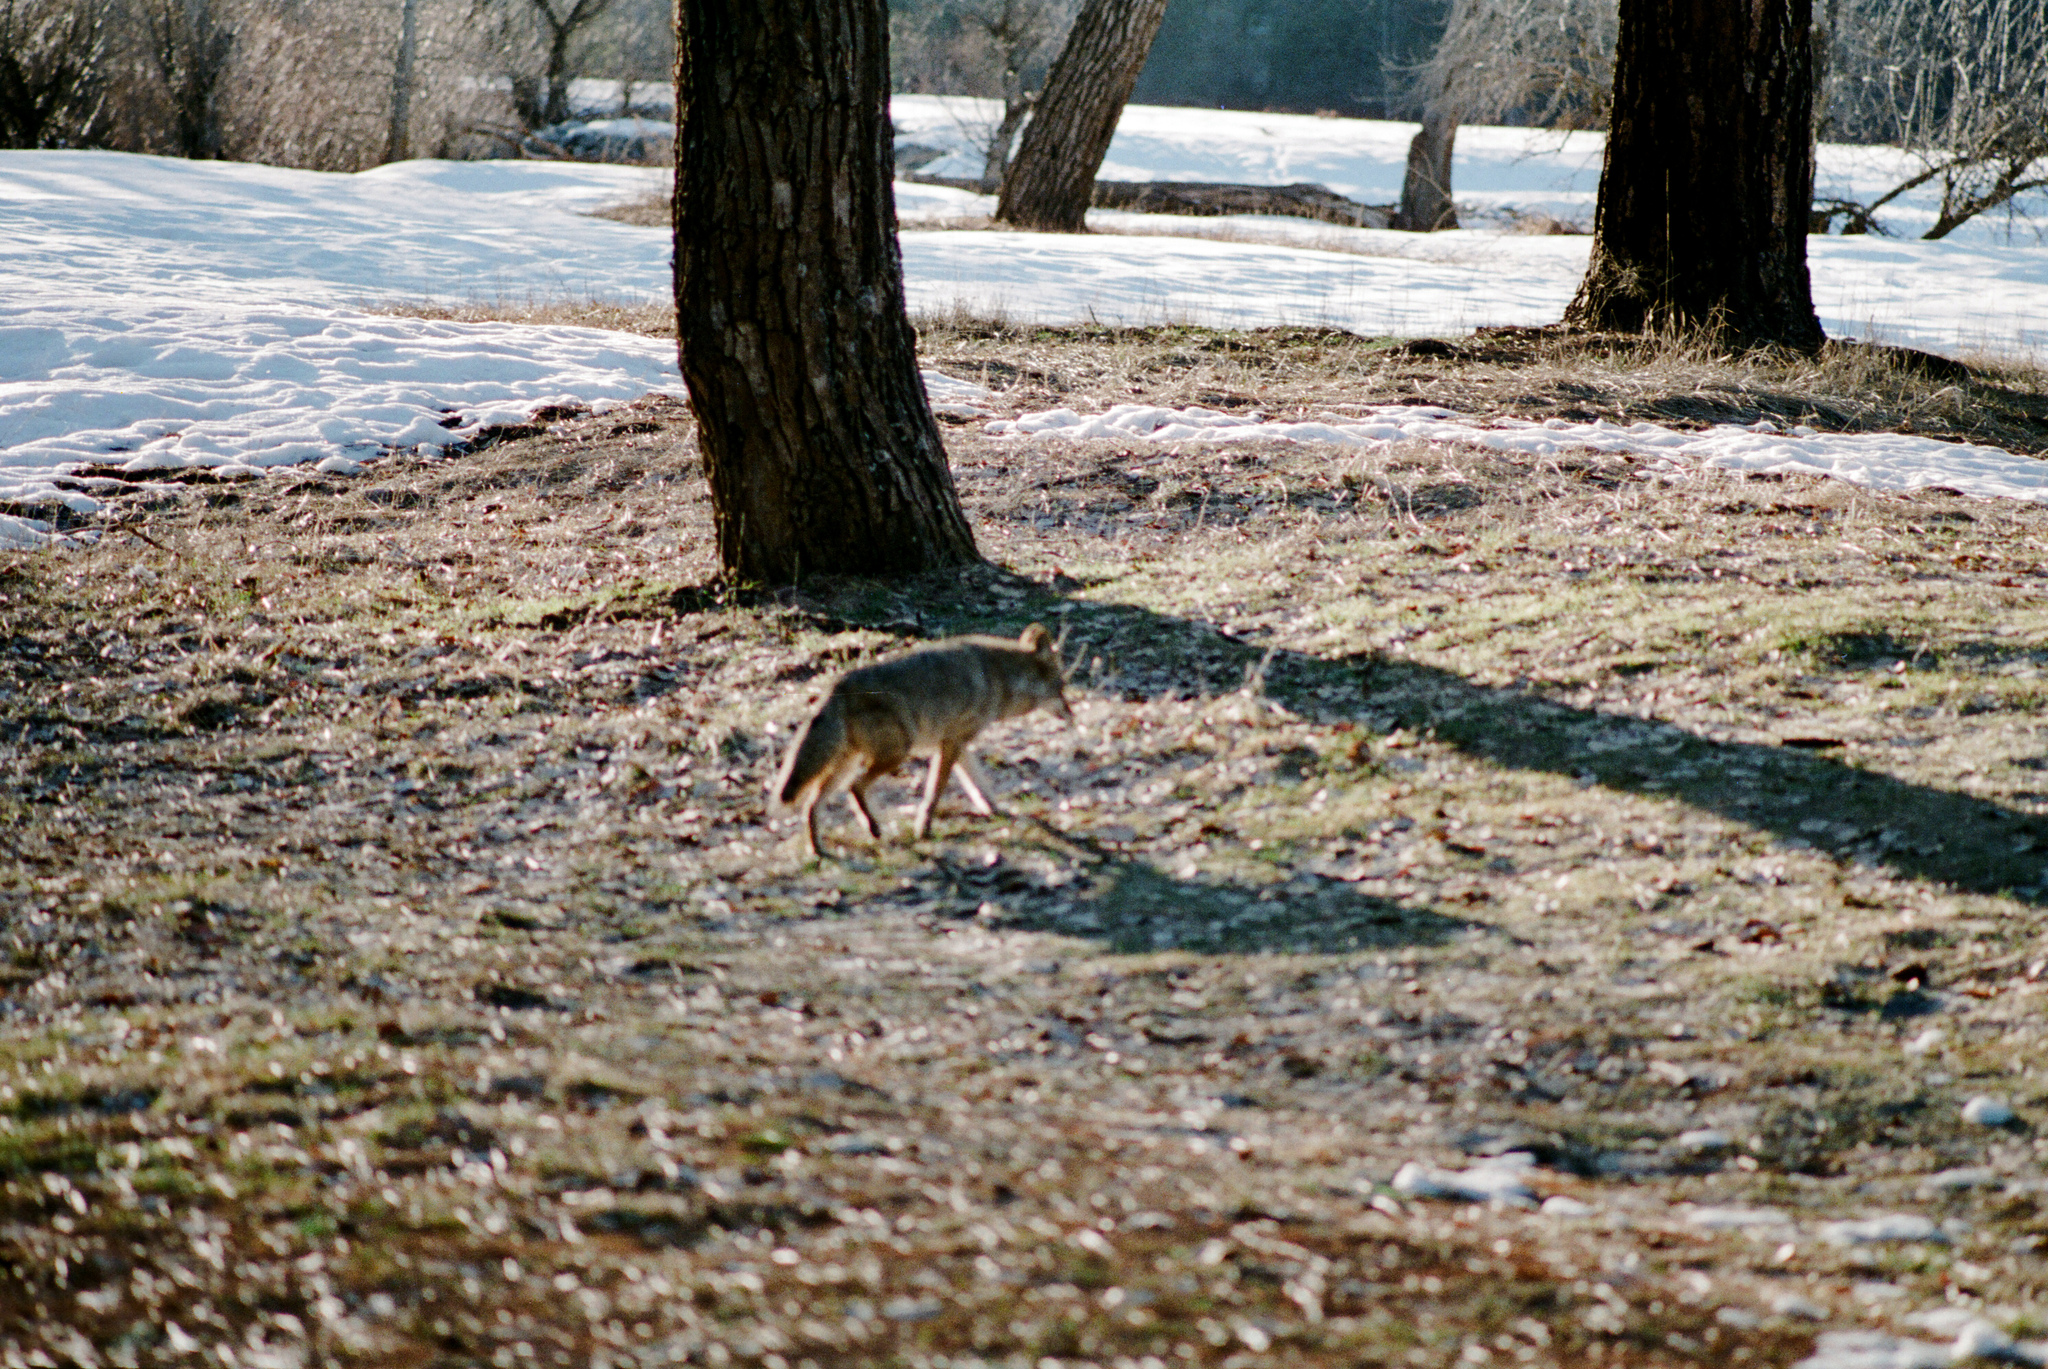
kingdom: Animalia
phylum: Chordata
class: Mammalia
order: Carnivora
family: Canidae
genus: Canis
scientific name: Canis latrans
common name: Coyote
